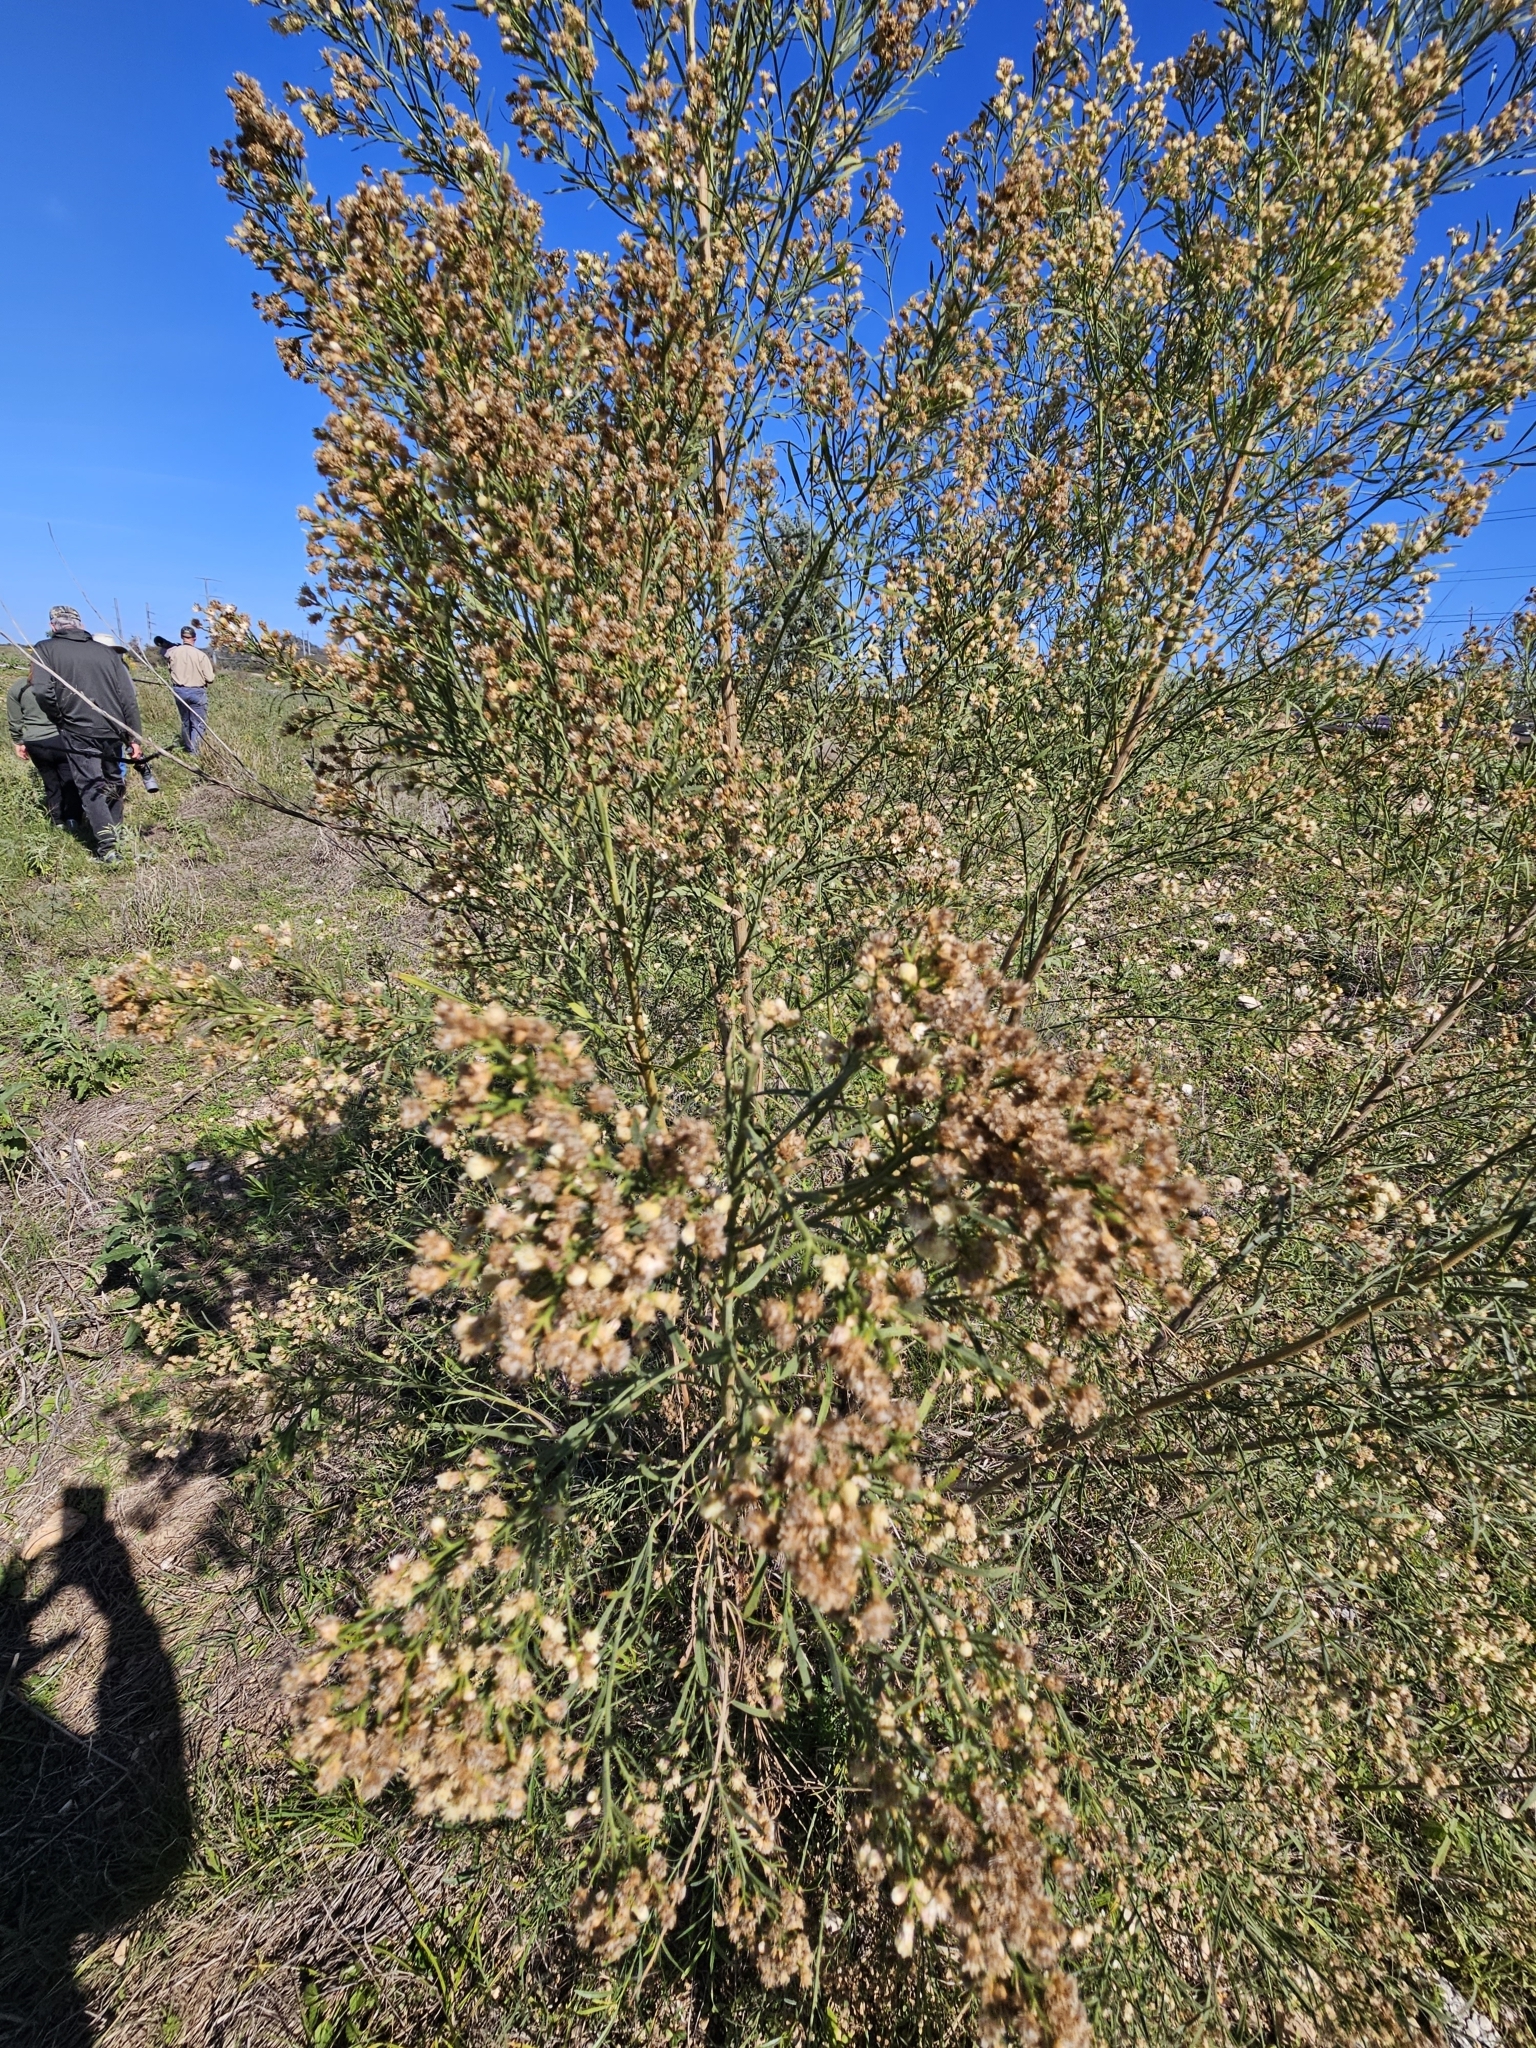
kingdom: Plantae
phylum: Tracheophyta
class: Magnoliopsida
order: Asterales
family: Asteraceae
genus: Baccharis
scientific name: Baccharis neglecta
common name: Roosevelt-weed
